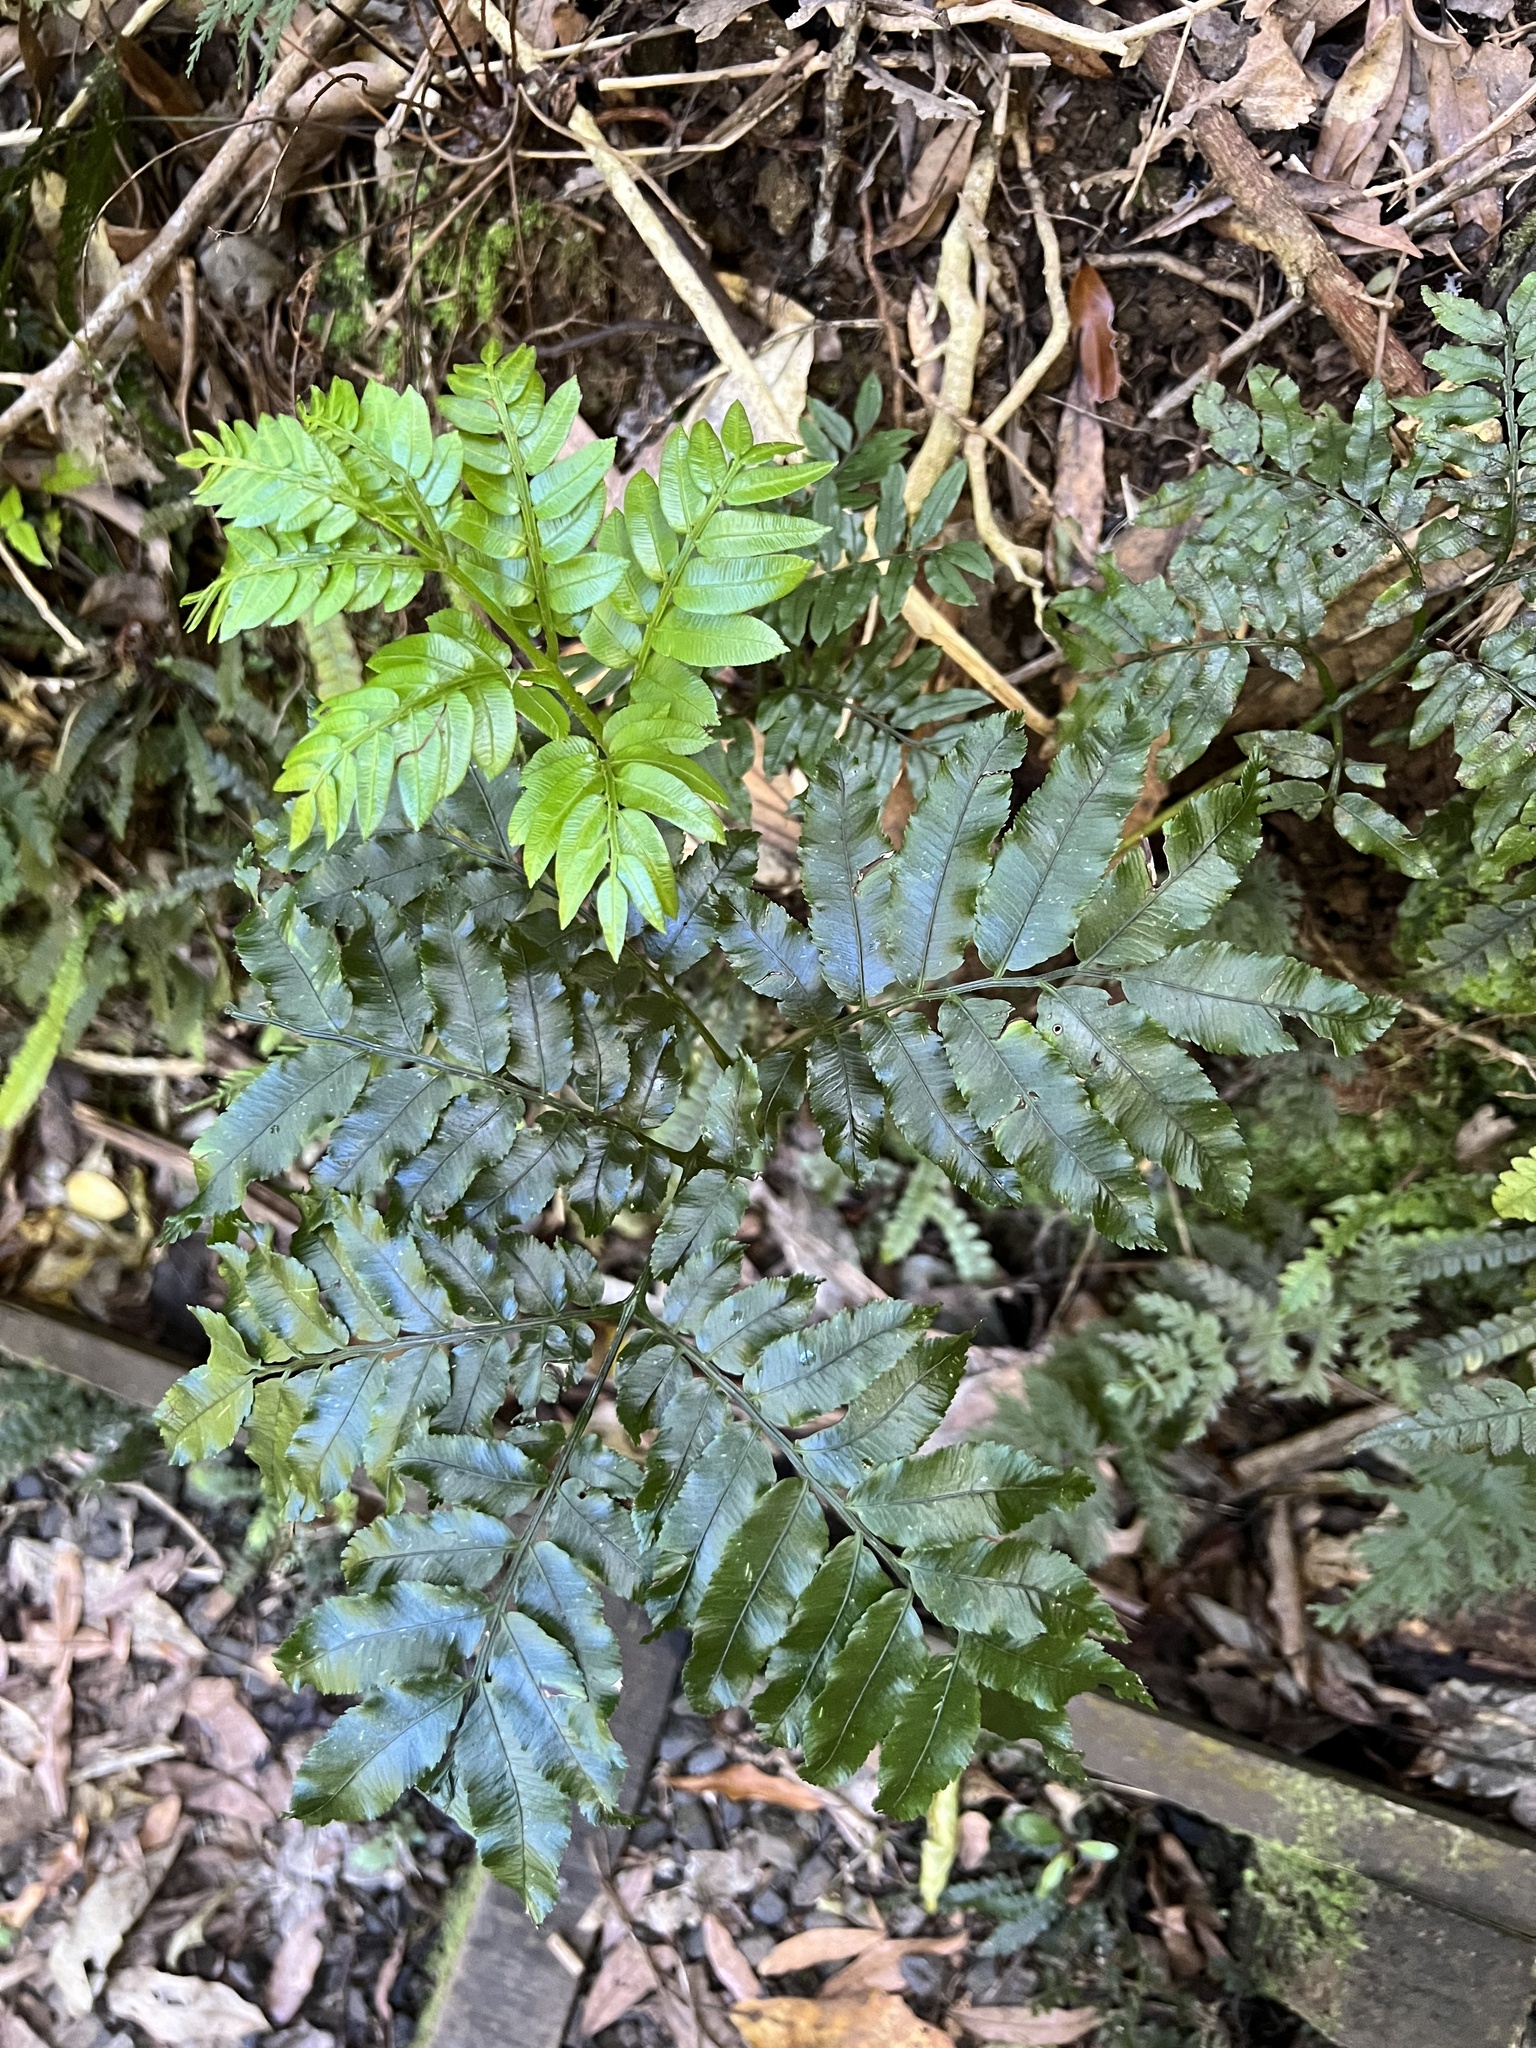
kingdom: Plantae
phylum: Tracheophyta
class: Polypodiopsida
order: Marattiales
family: Marattiaceae
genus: Ptisana
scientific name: Ptisana salicina
